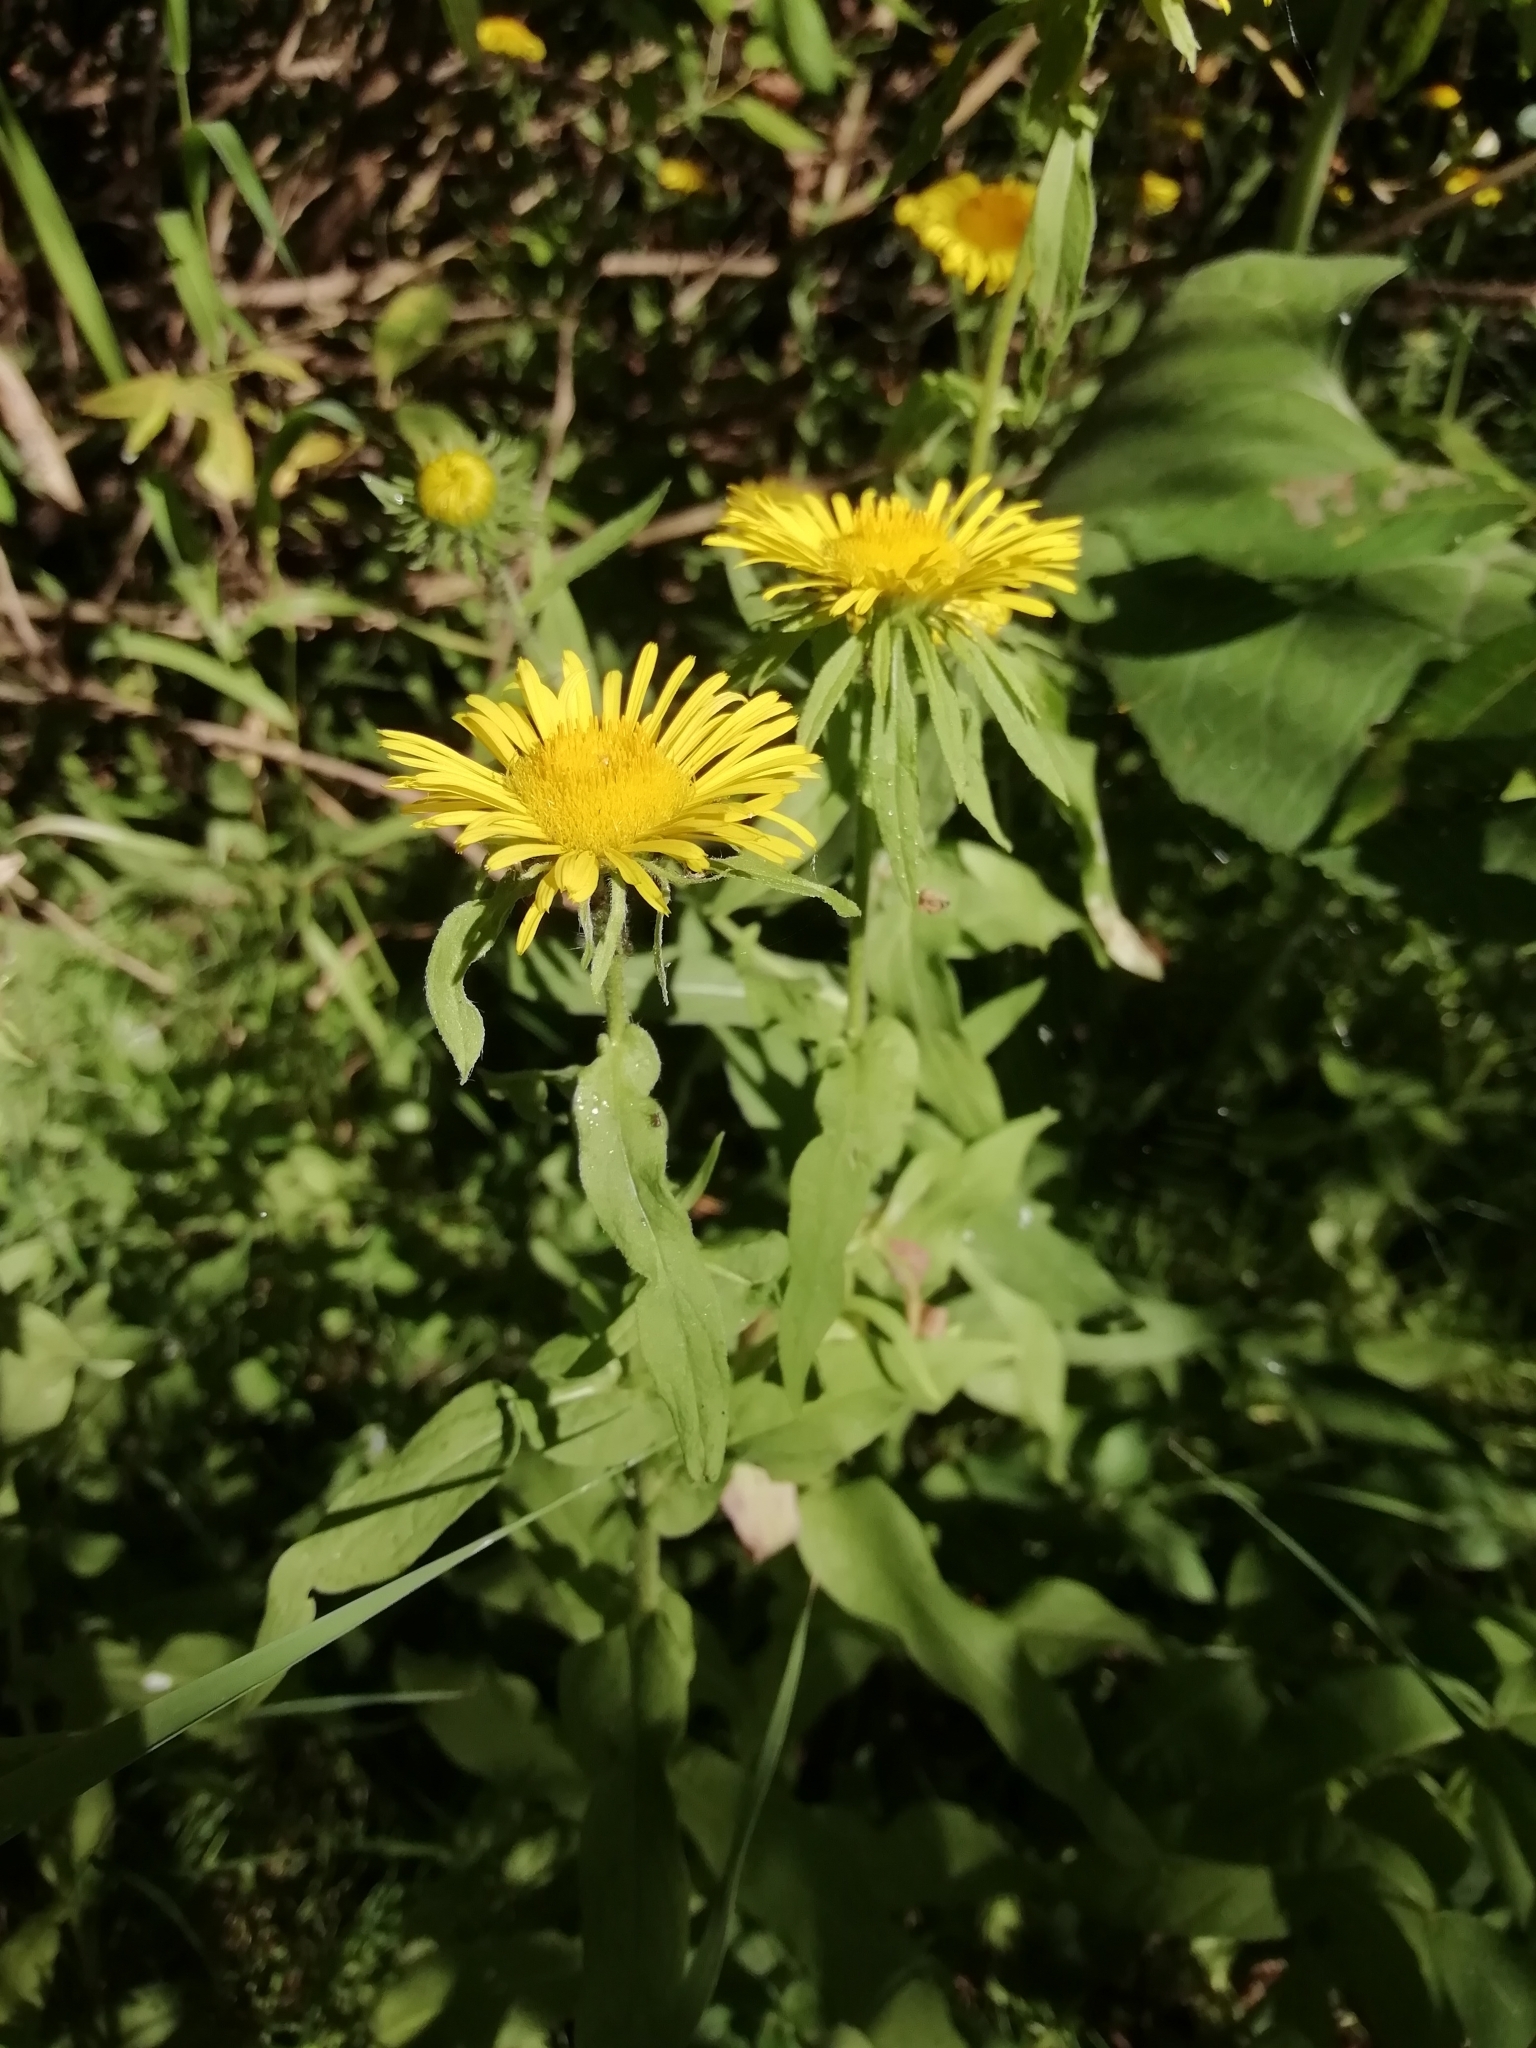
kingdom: Plantae
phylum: Tracheophyta
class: Magnoliopsida
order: Asterales
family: Asteraceae
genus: Pentanema
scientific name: Pentanema britannicum
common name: British elecampane
